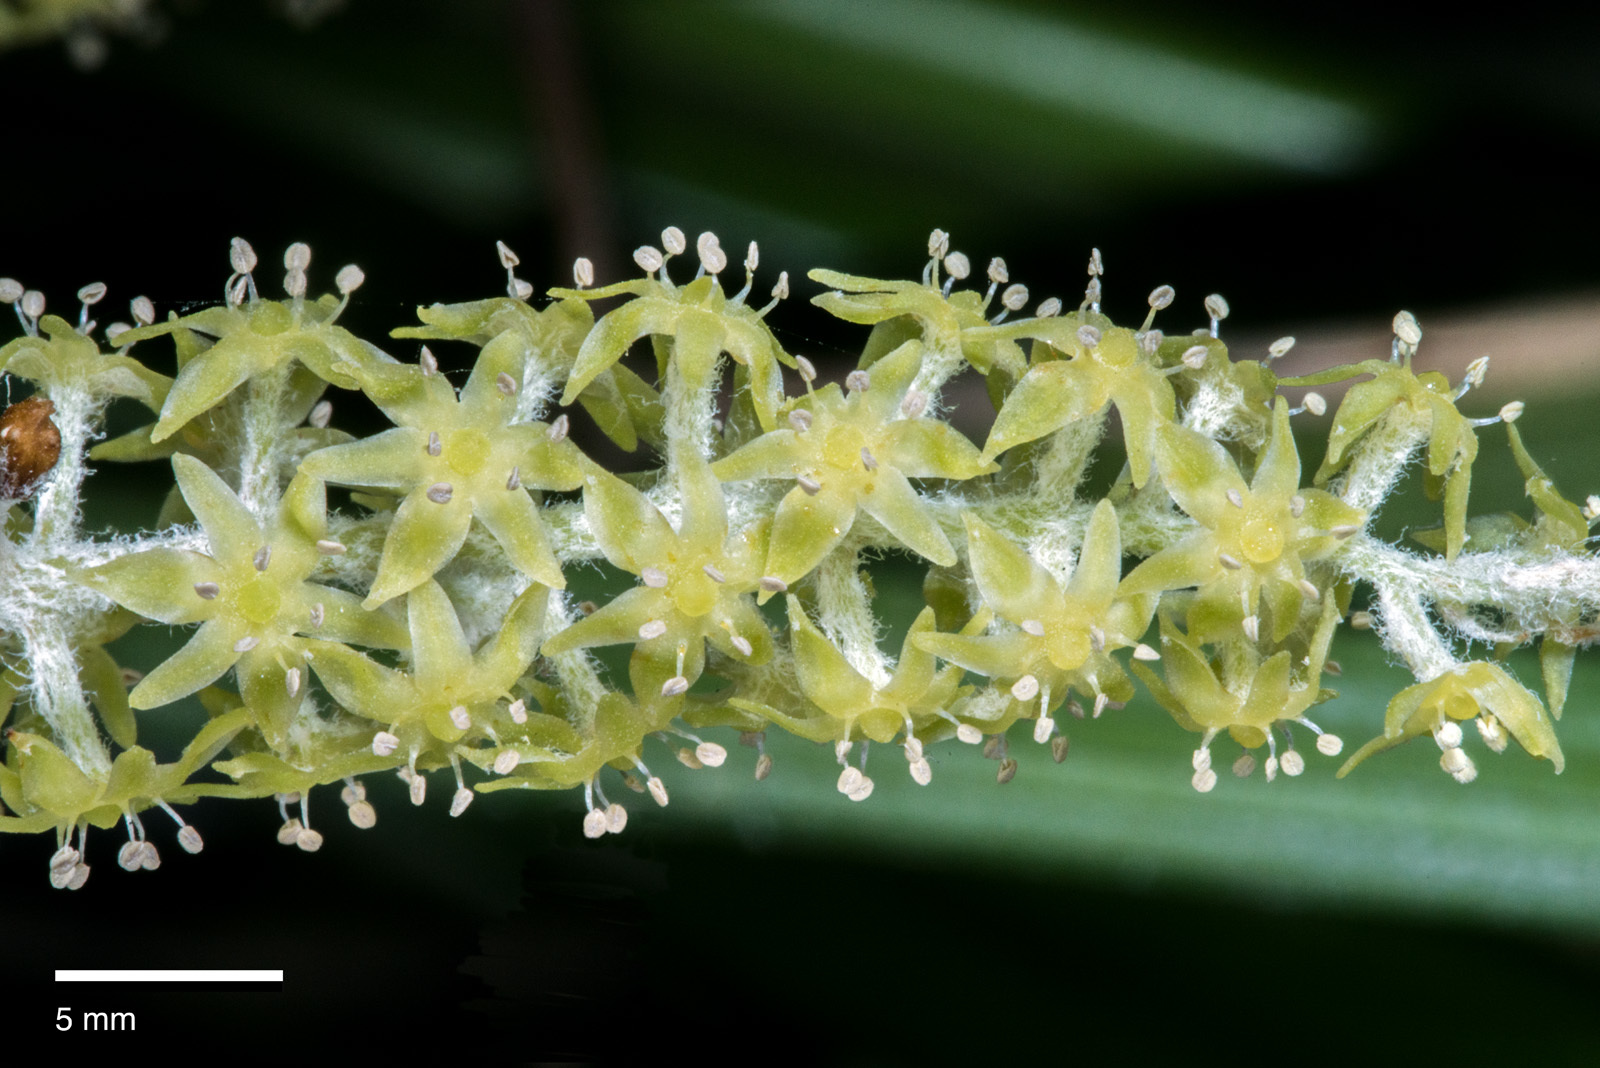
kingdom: Plantae
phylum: Tracheophyta
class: Liliopsida
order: Asparagales
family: Asteliaceae
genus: Astelia
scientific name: Astelia solandri
